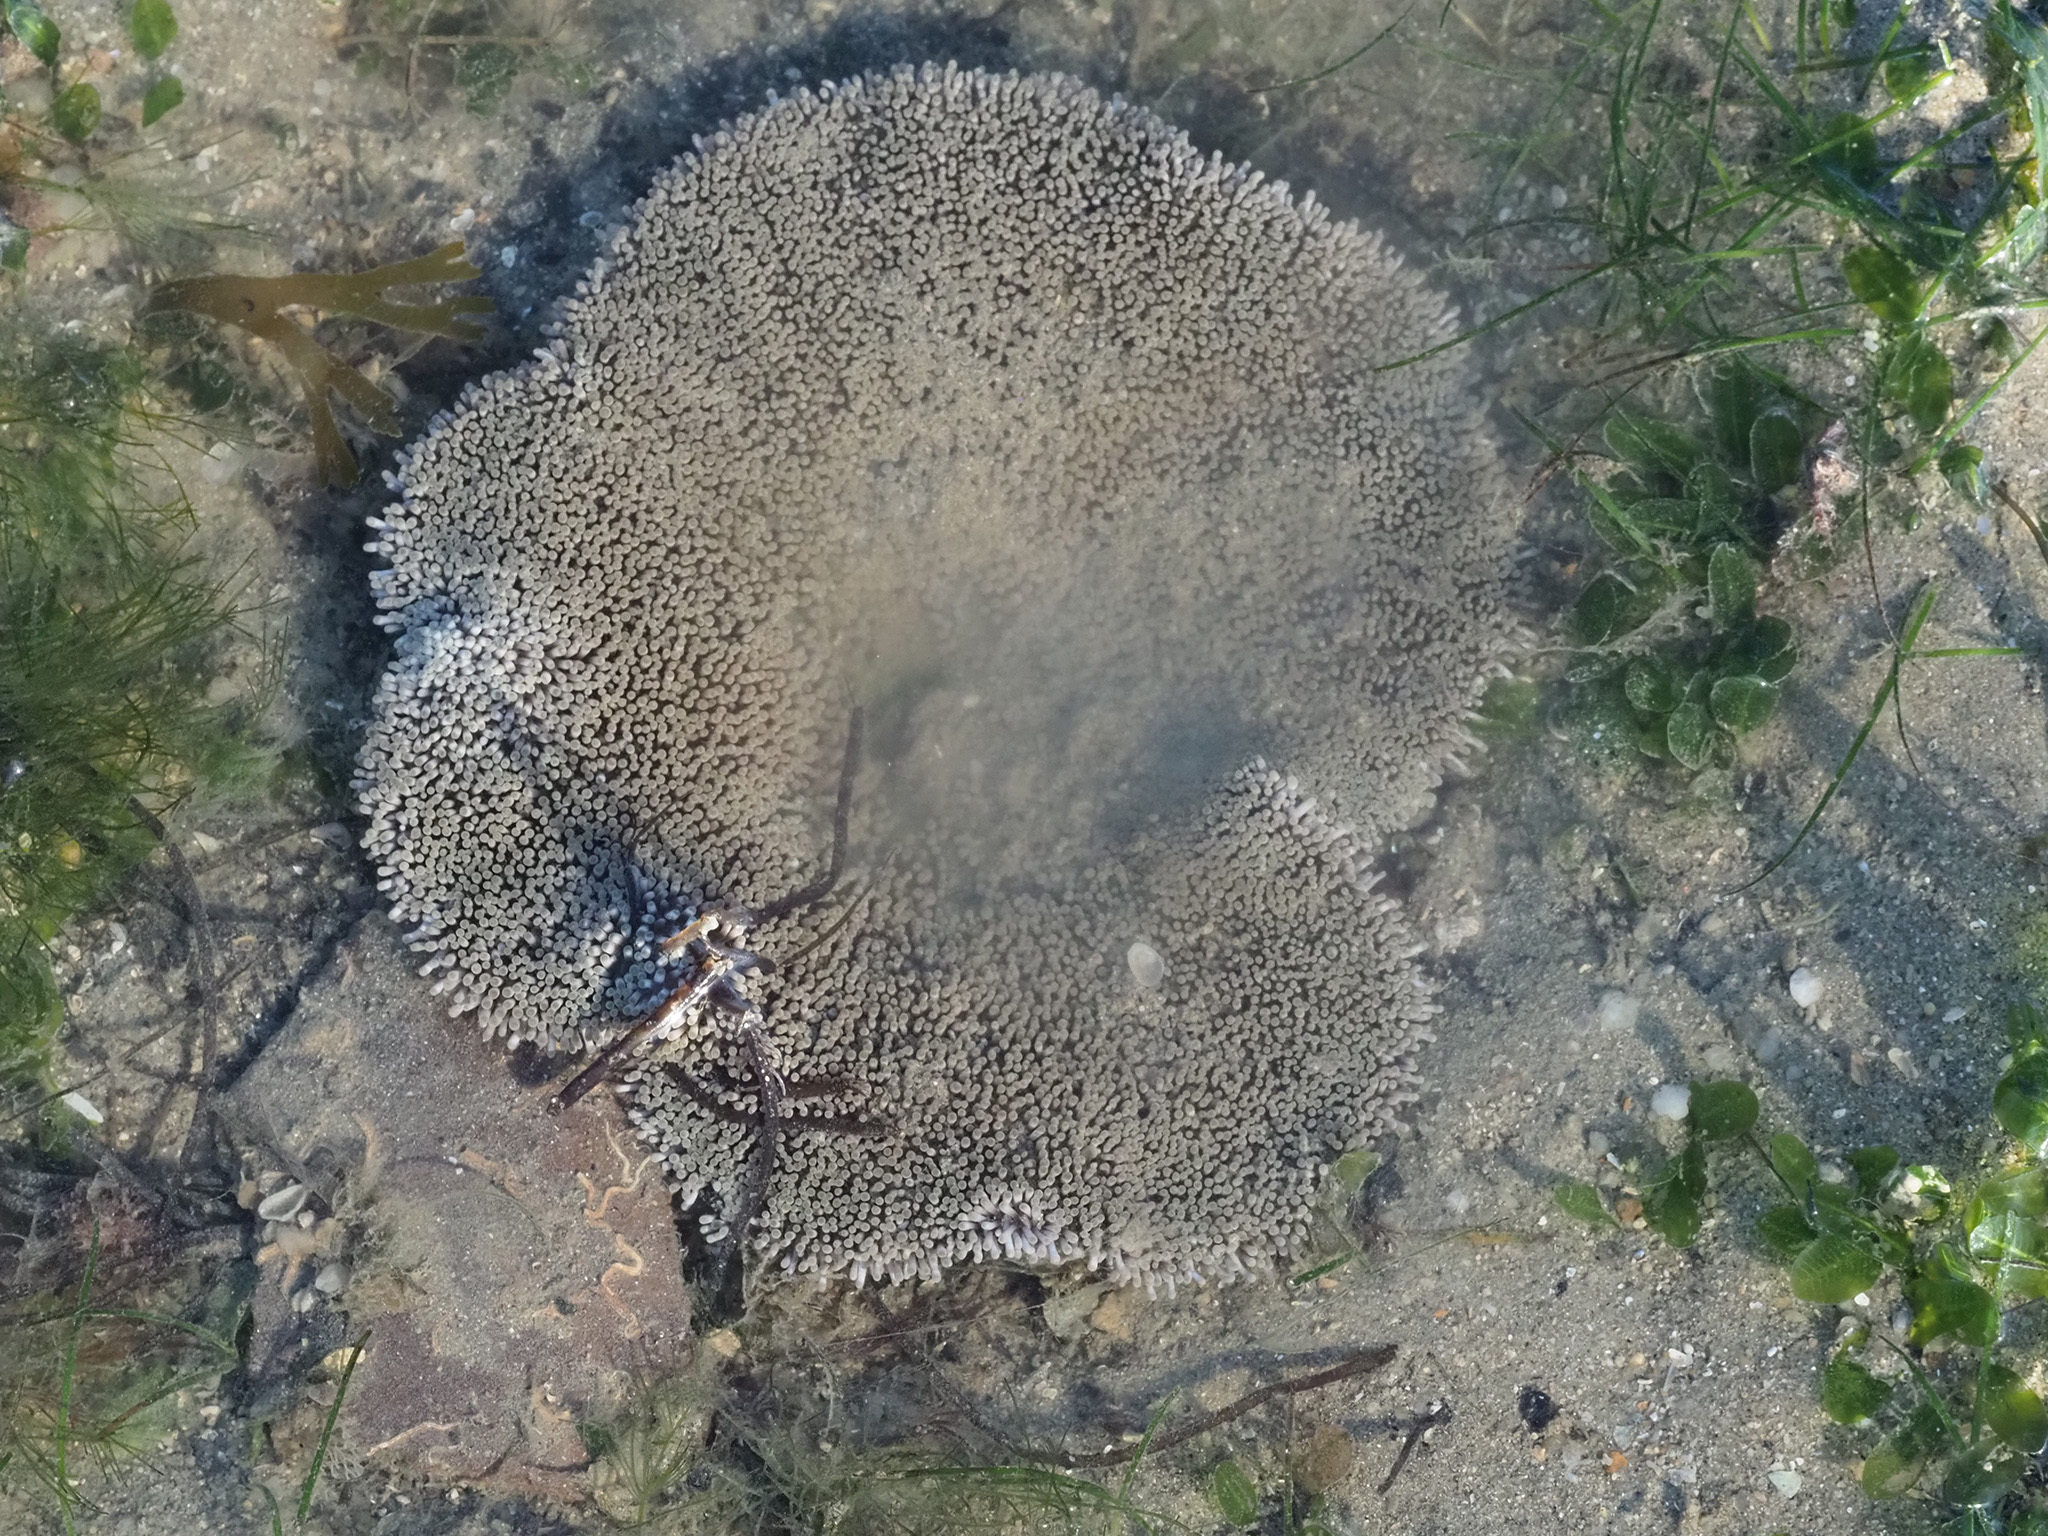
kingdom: Animalia
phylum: Cnidaria
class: Anthozoa
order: Actiniaria
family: Stichodactylidae
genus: Stichodactyla
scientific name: Stichodactyla haddoni
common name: Haddon's sea anemone
